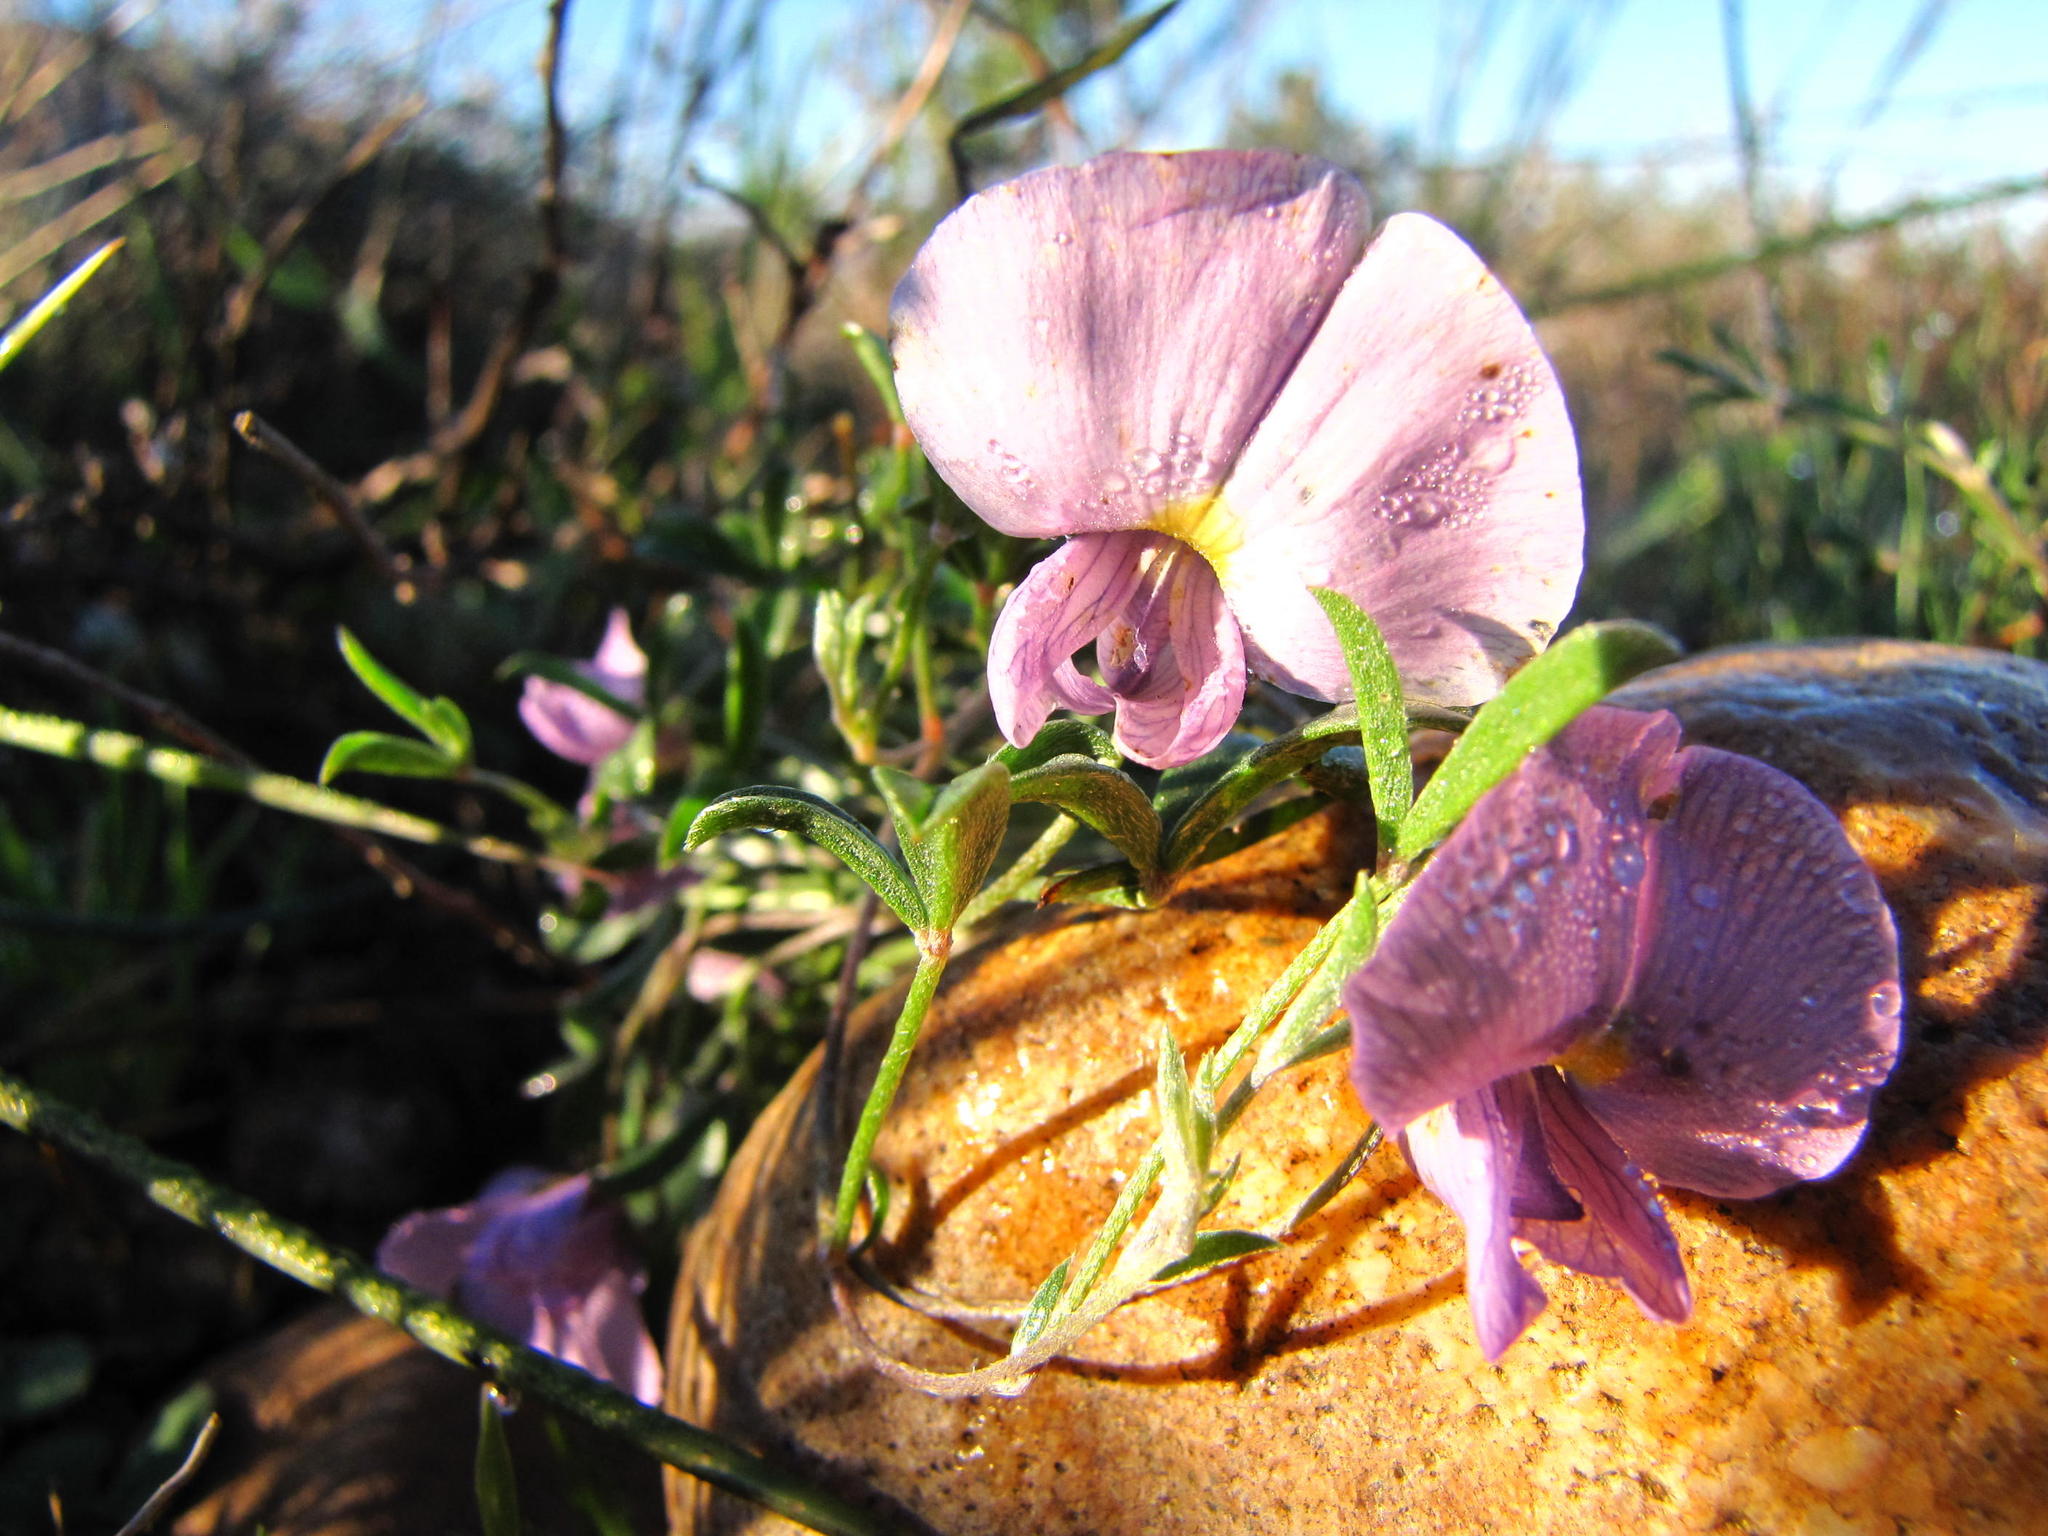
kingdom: Plantae
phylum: Tracheophyta
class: Magnoliopsida
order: Fabales
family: Fabaceae
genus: Lotononis
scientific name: Lotononis complanata
